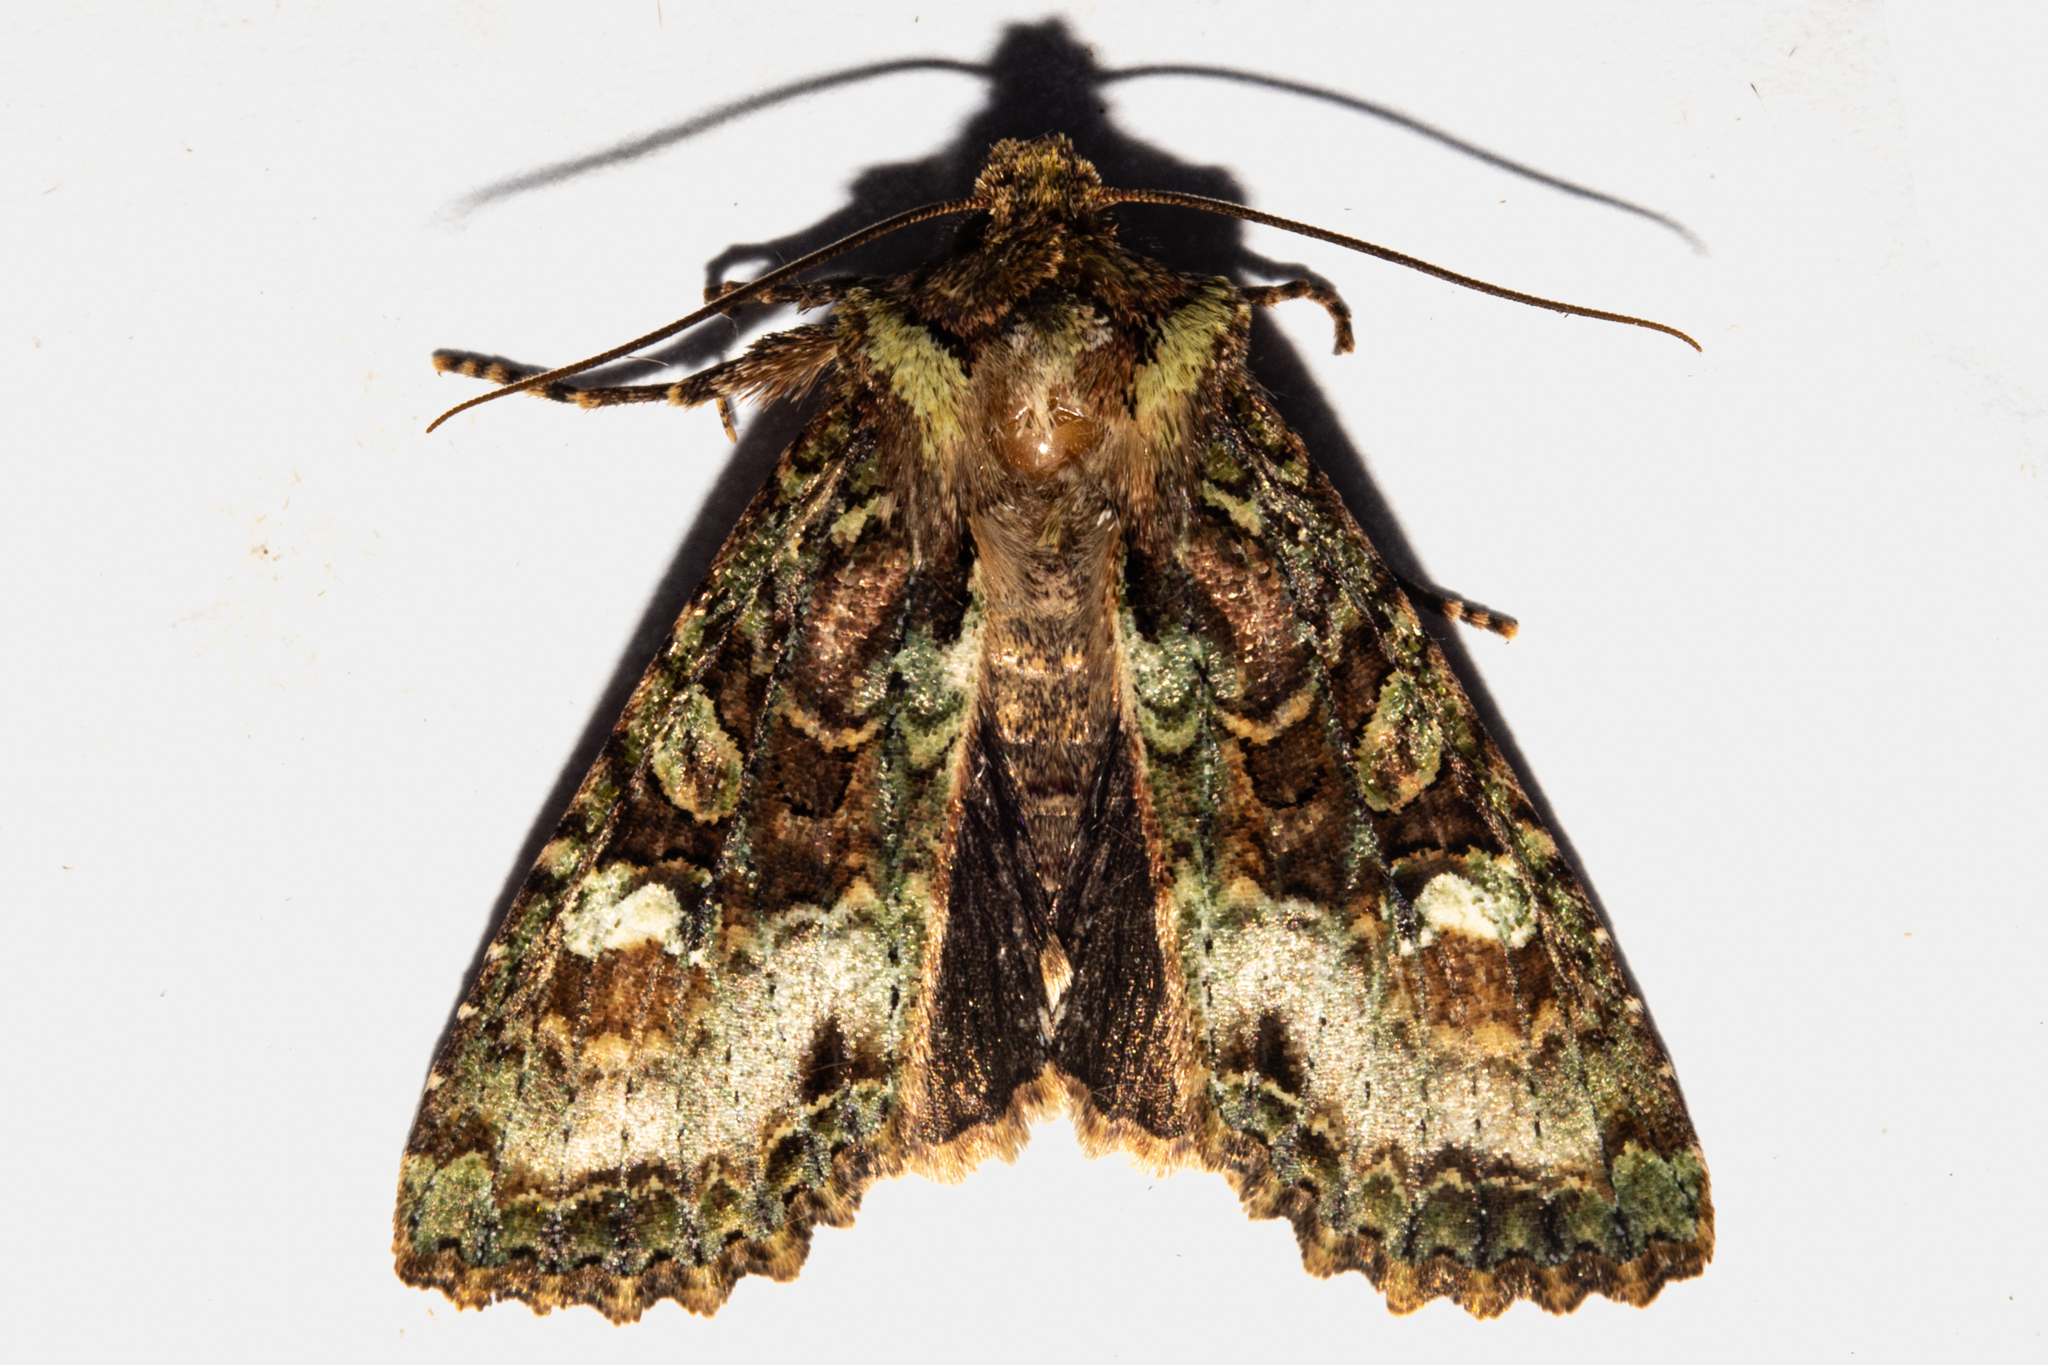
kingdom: Animalia
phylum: Arthropoda
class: Insecta
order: Lepidoptera
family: Noctuidae
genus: Meterana
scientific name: Meterana
